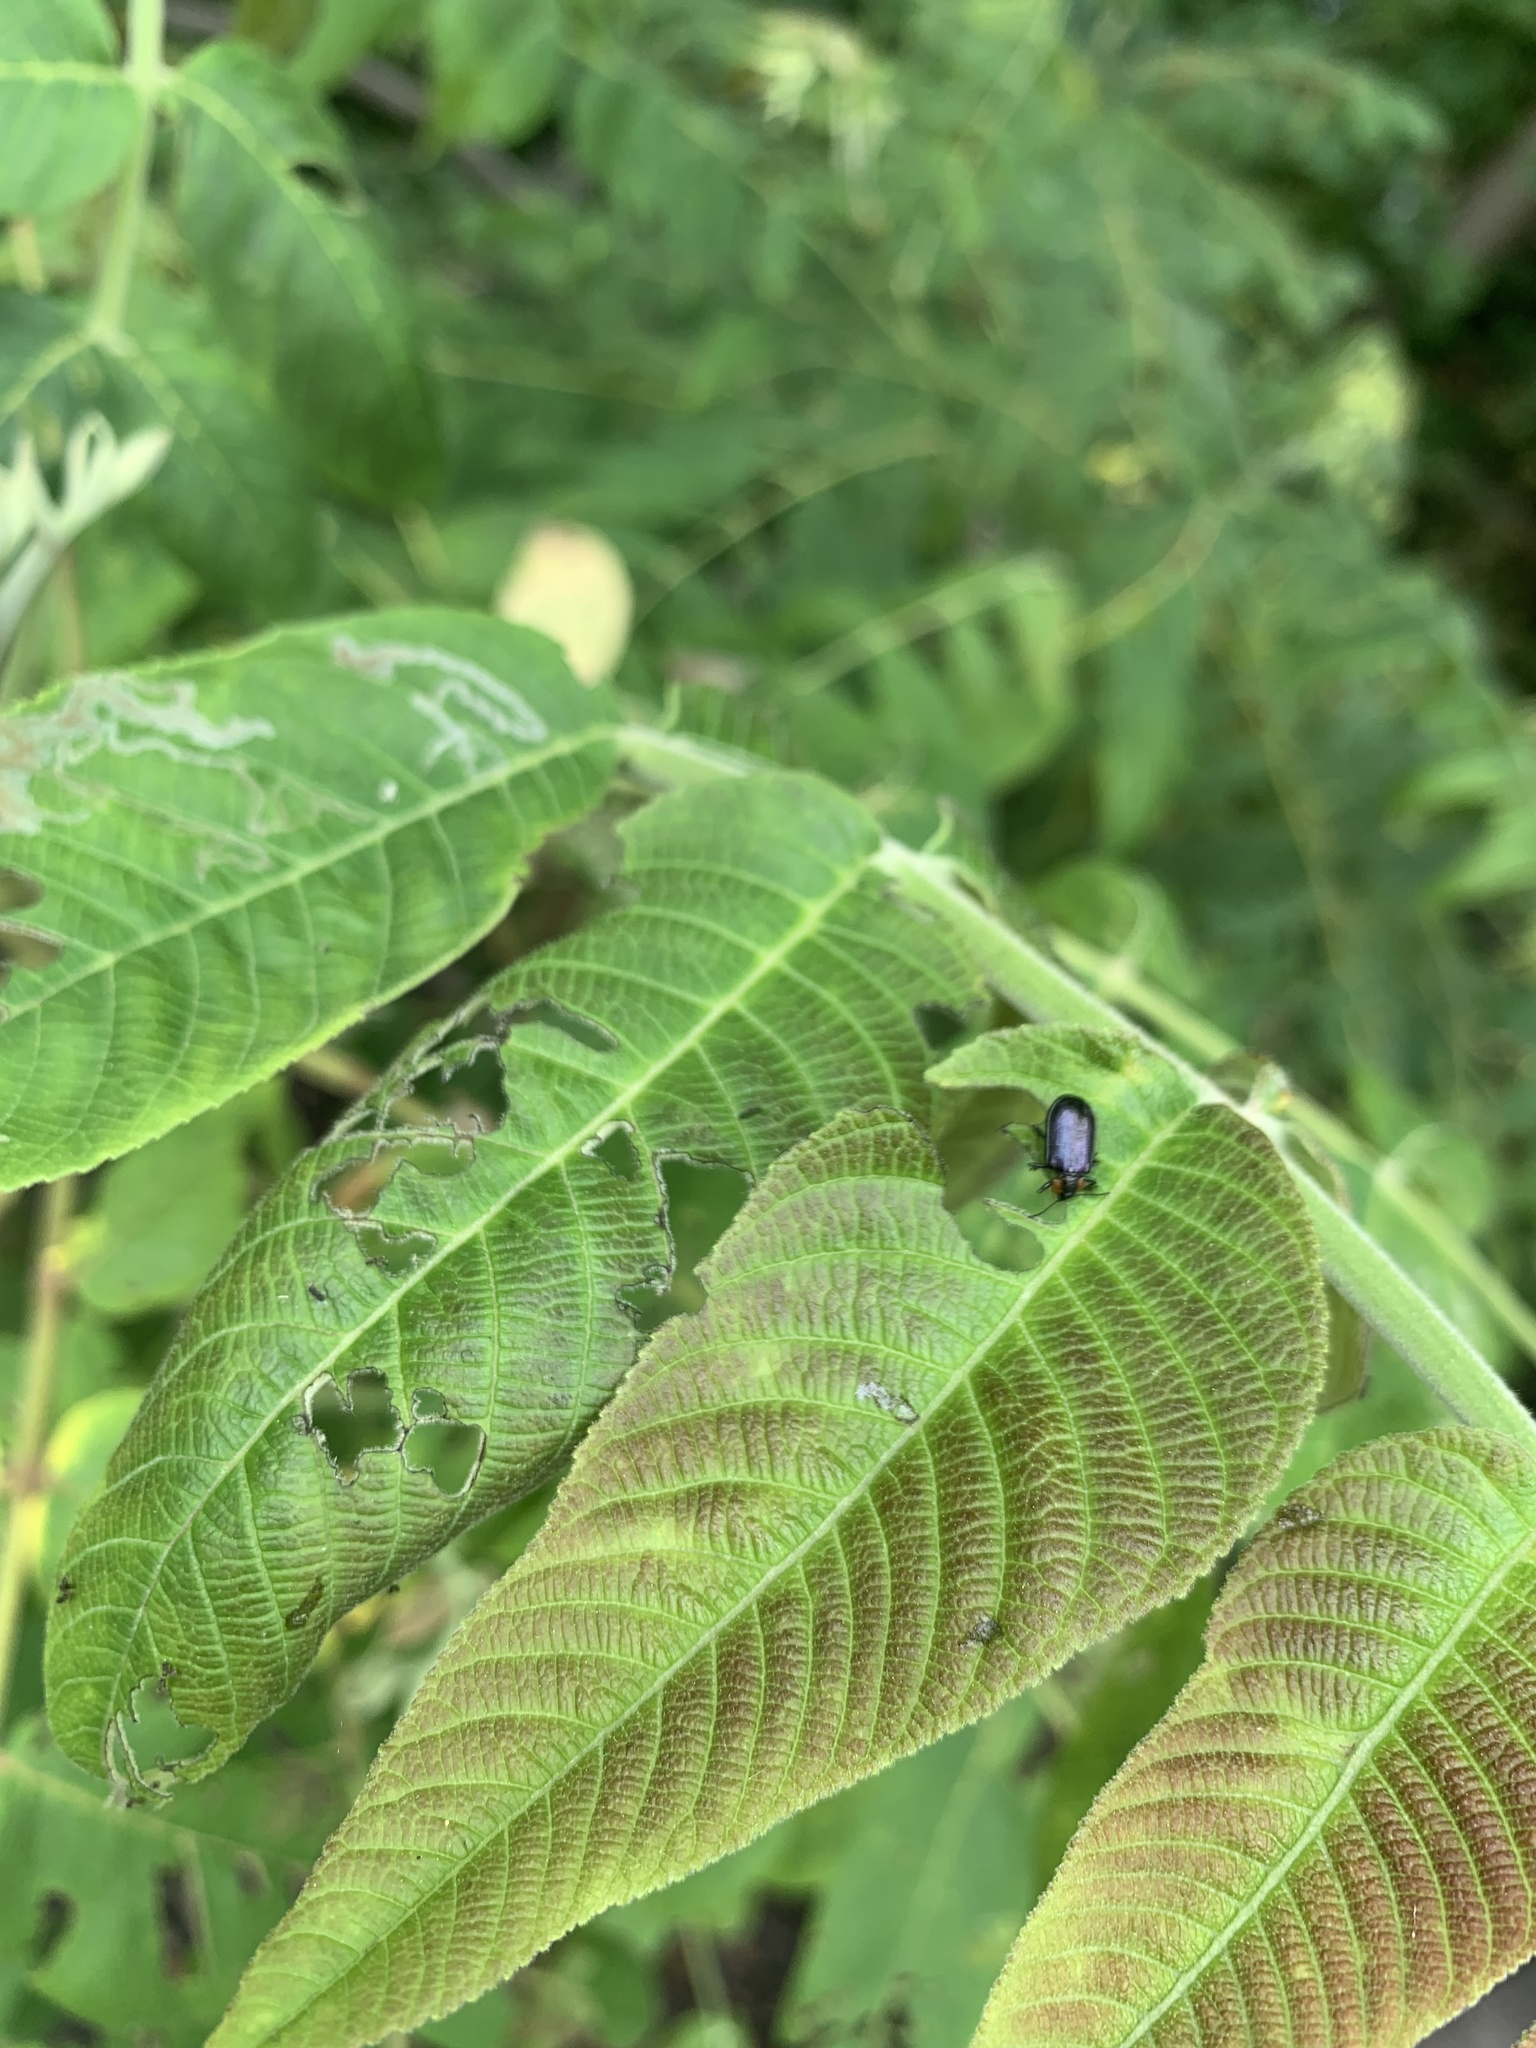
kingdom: Animalia
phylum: Arthropoda
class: Insecta
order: Coleoptera
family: Chrysomelidae
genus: Gastrolina
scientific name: Gastrolina depressa
